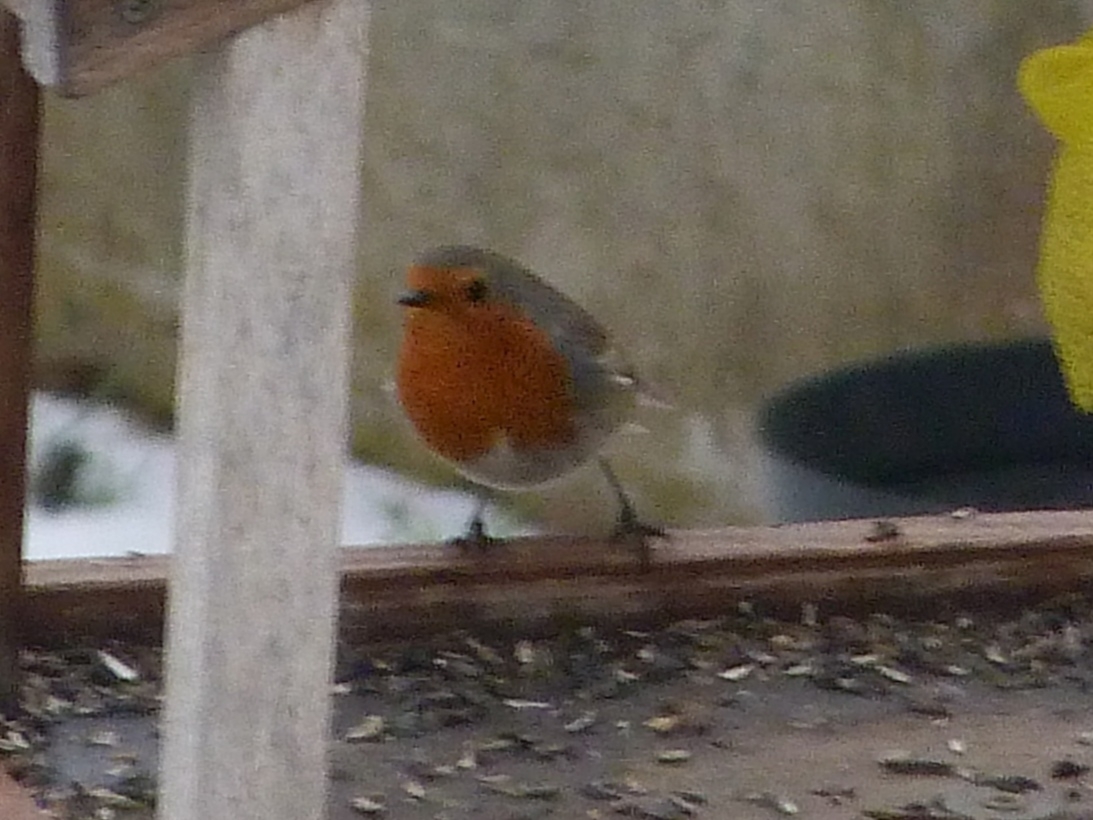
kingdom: Animalia
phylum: Chordata
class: Aves
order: Passeriformes
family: Muscicapidae
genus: Erithacus
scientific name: Erithacus rubecula
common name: European robin
